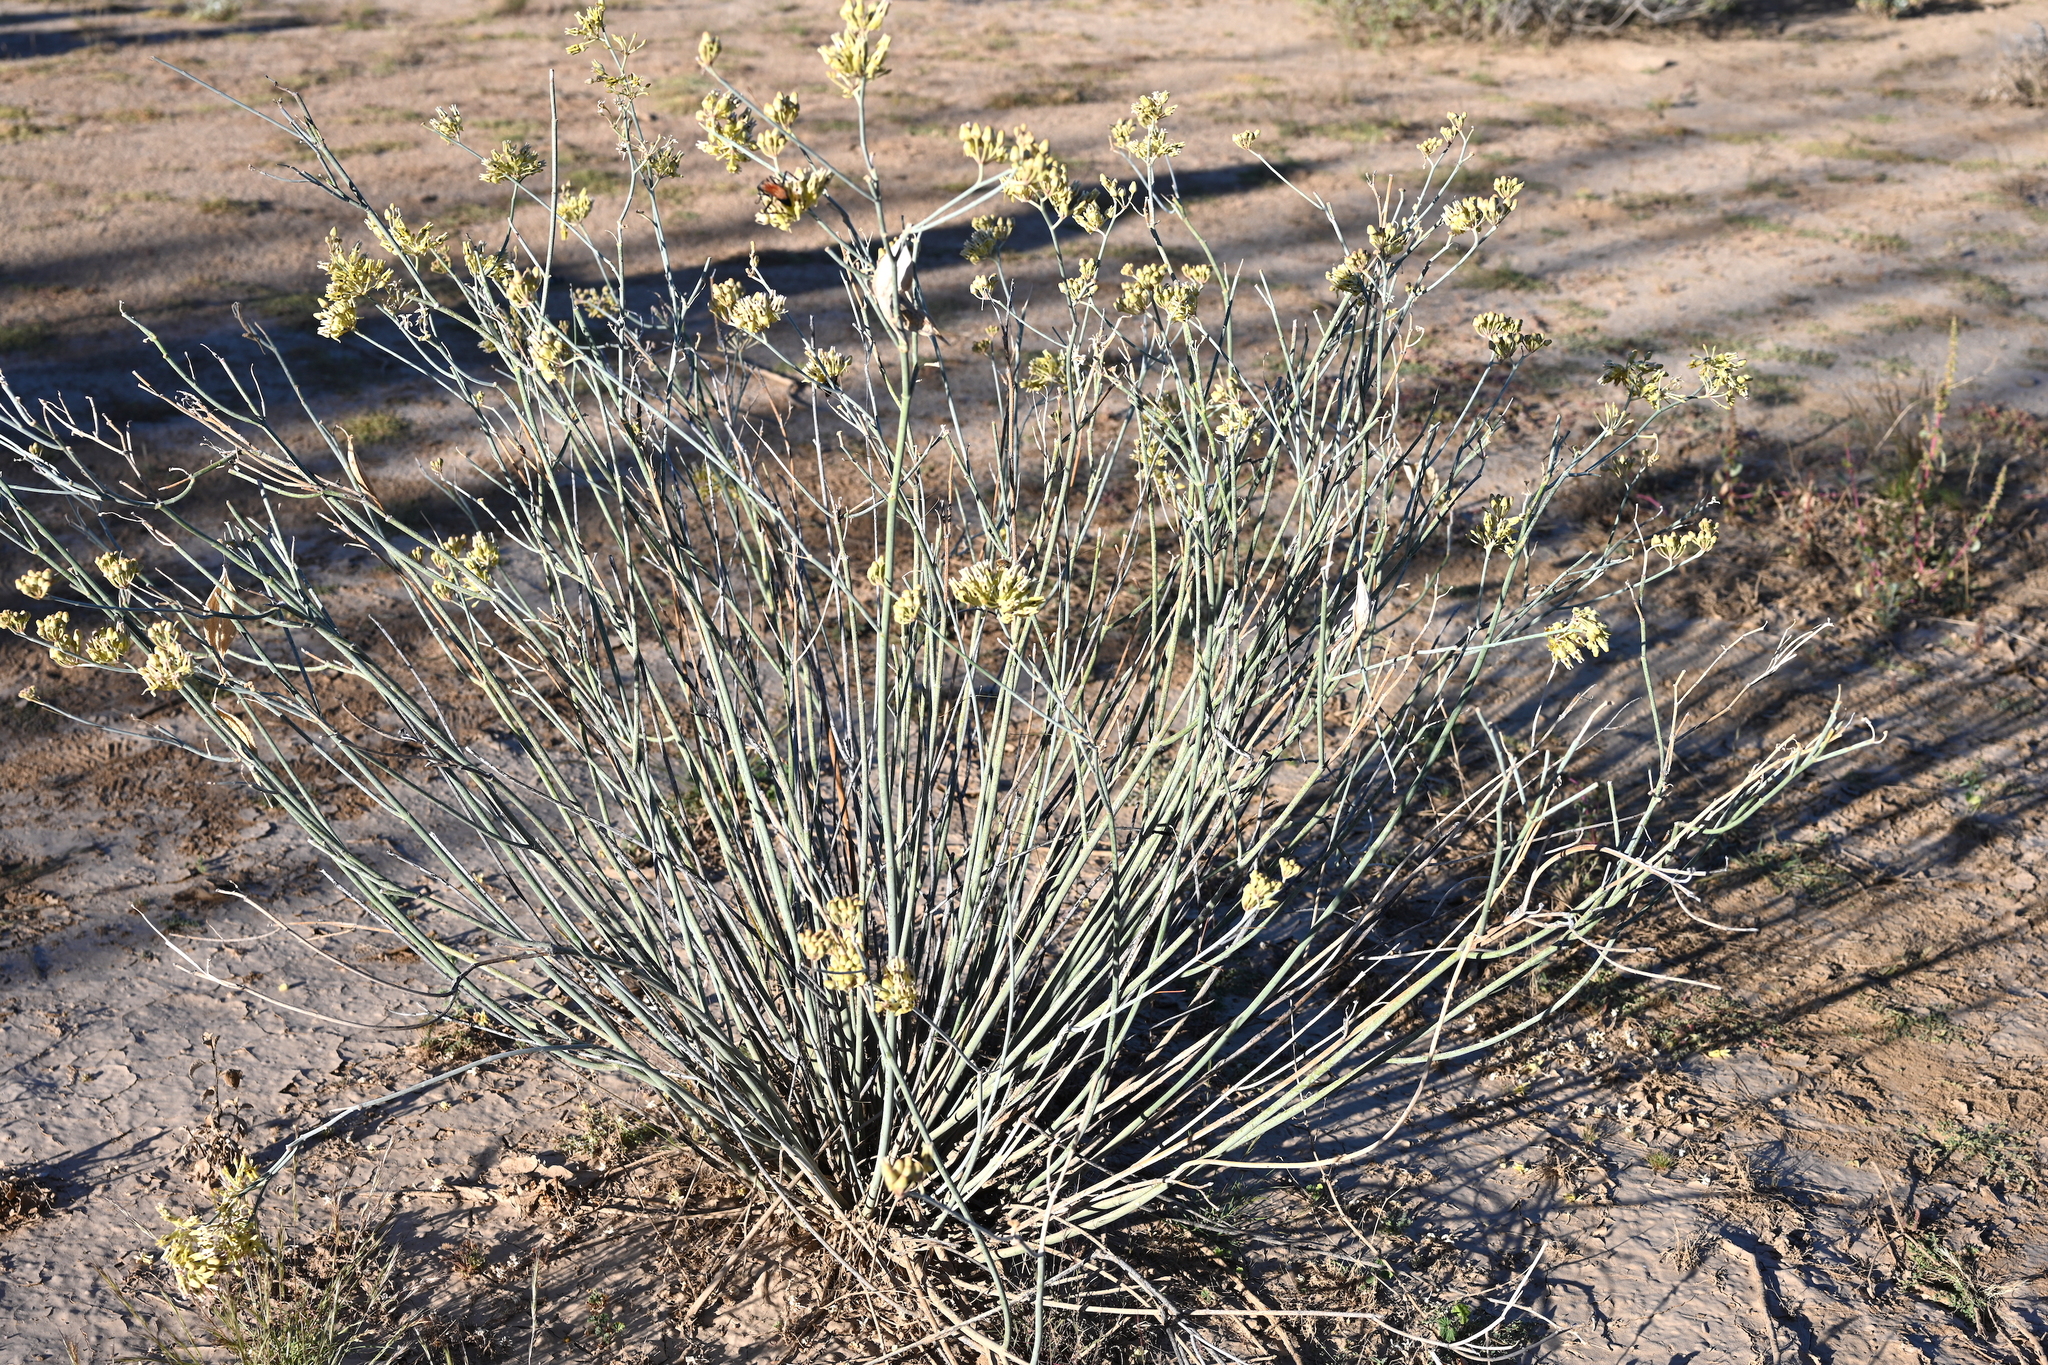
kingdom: Plantae
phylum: Tracheophyta
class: Magnoliopsida
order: Gentianales
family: Apocynaceae
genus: Asclepias
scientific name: Asclepias subulata
